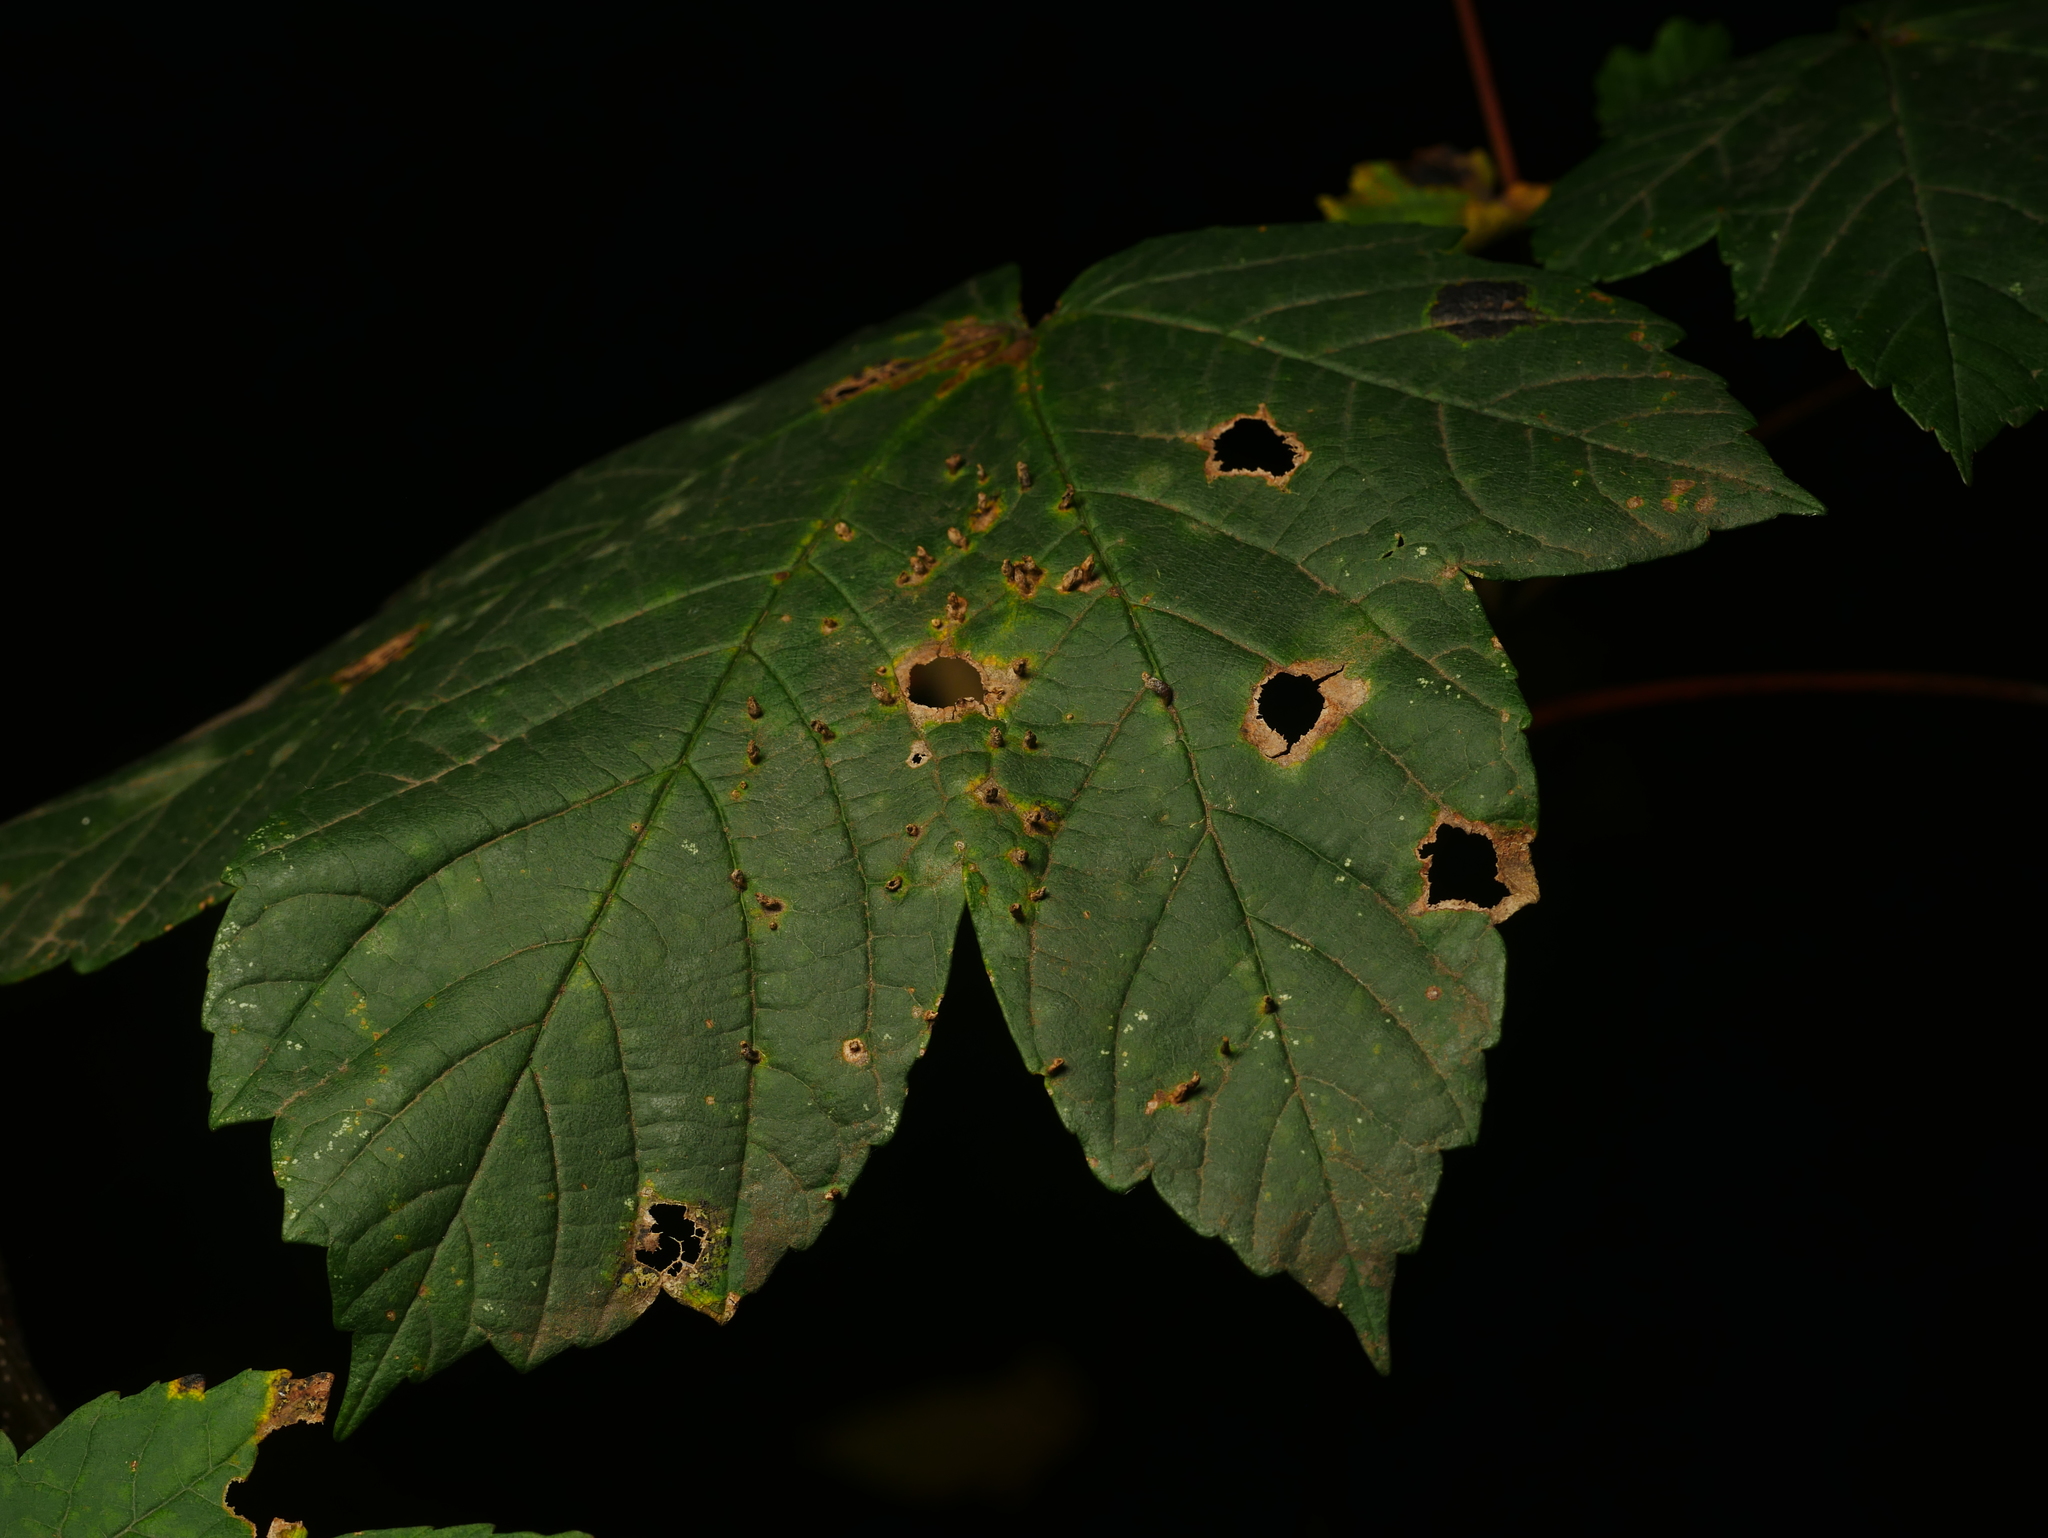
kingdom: Animalia
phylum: Arthropoda
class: Arachnida
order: Trombidiformes
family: Eriophyidae
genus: Aceria
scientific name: Aceria cephaloneus
